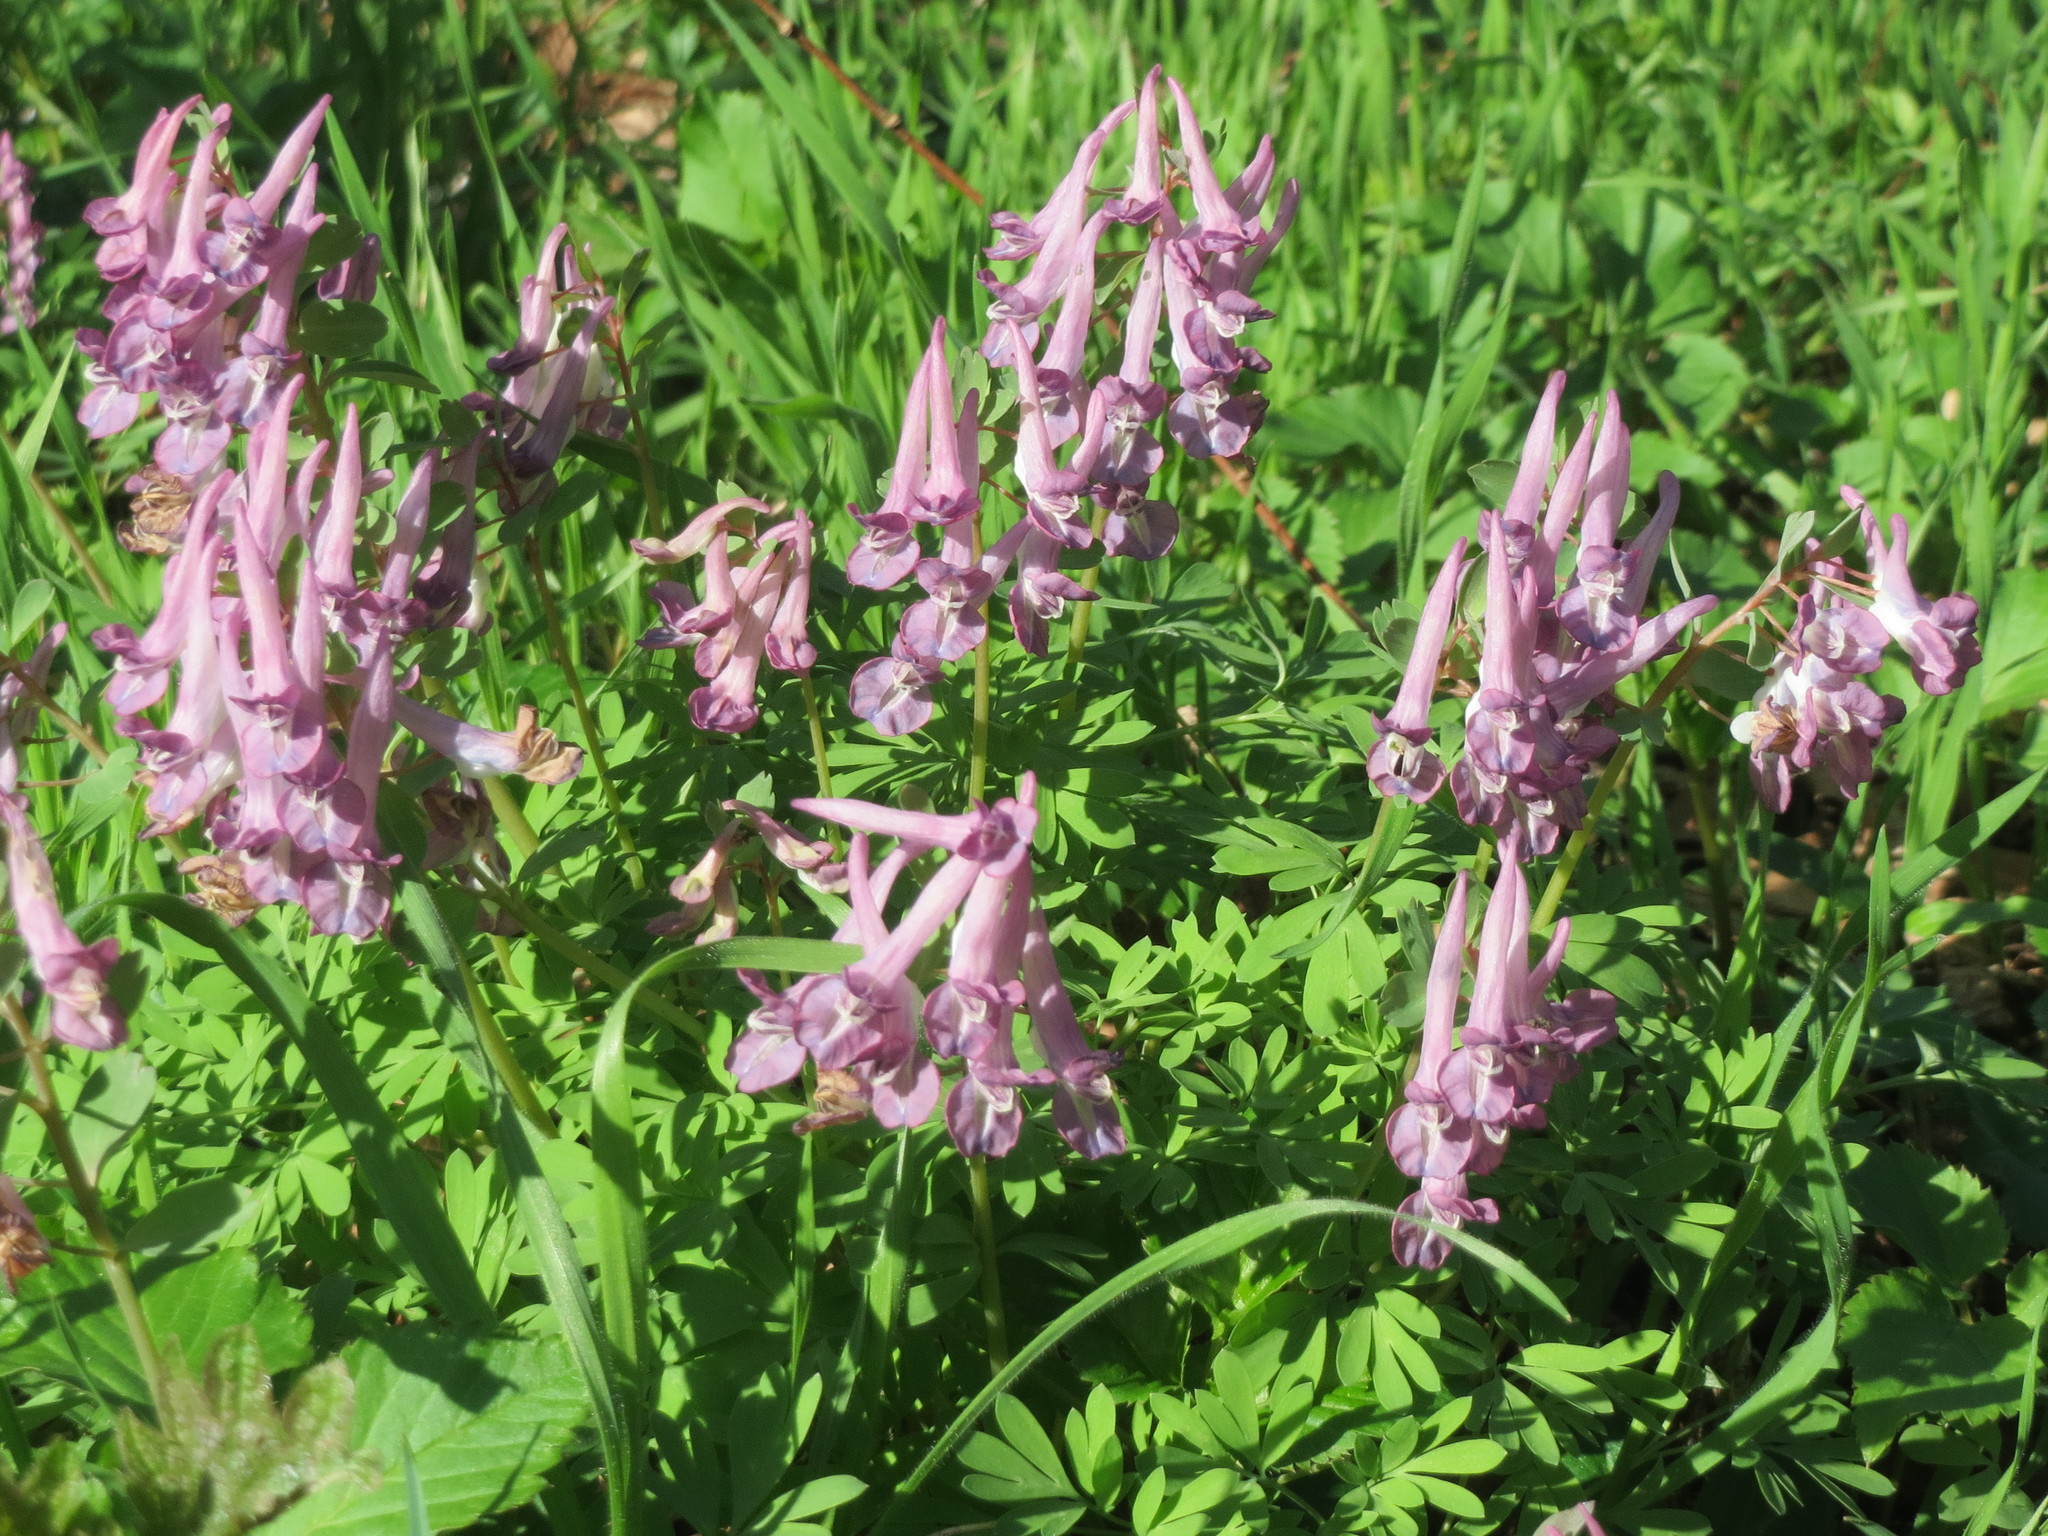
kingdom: Plantae
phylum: Tracheophyta
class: Magnoliopsida
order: Ranunculales
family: Papaveraceae
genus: Corydalis
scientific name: Corydalis solida
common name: Bird-in-a-bush
